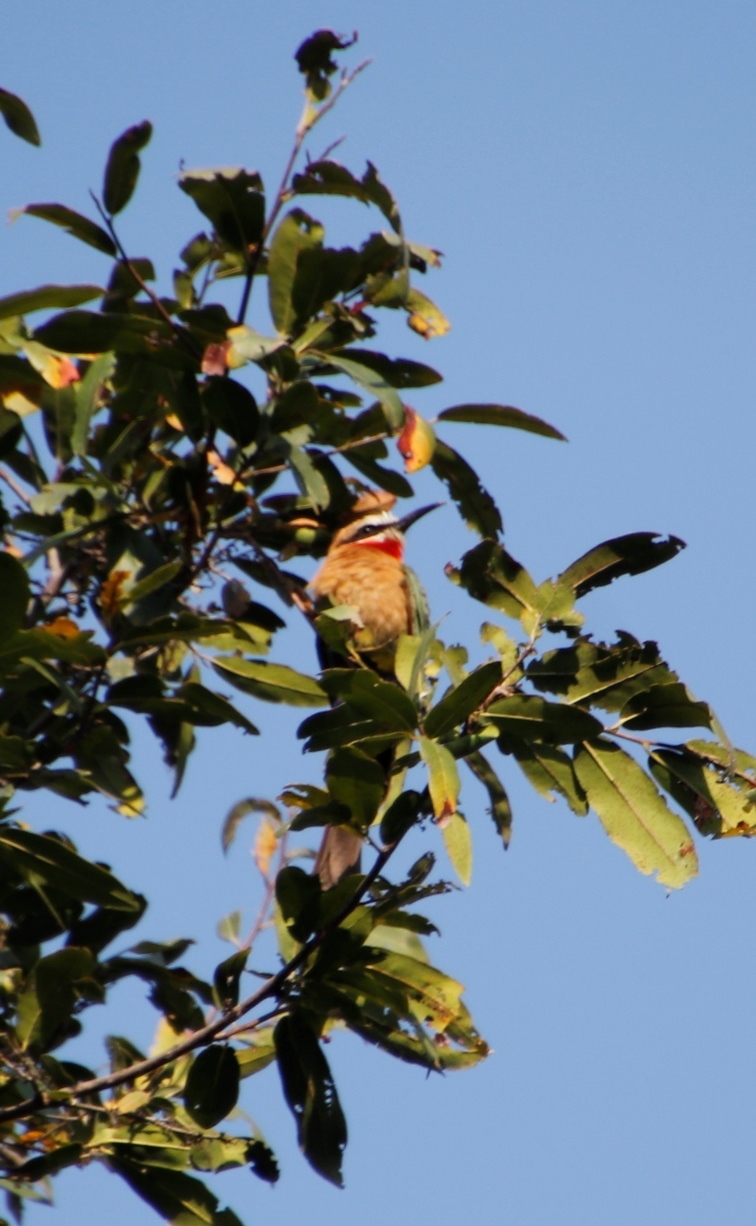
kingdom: Animalia
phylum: Chordata
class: Aves
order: Coraciiformes
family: Meropidae
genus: Merops
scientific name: Merops bullockoides
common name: White-fronted bee-eater
